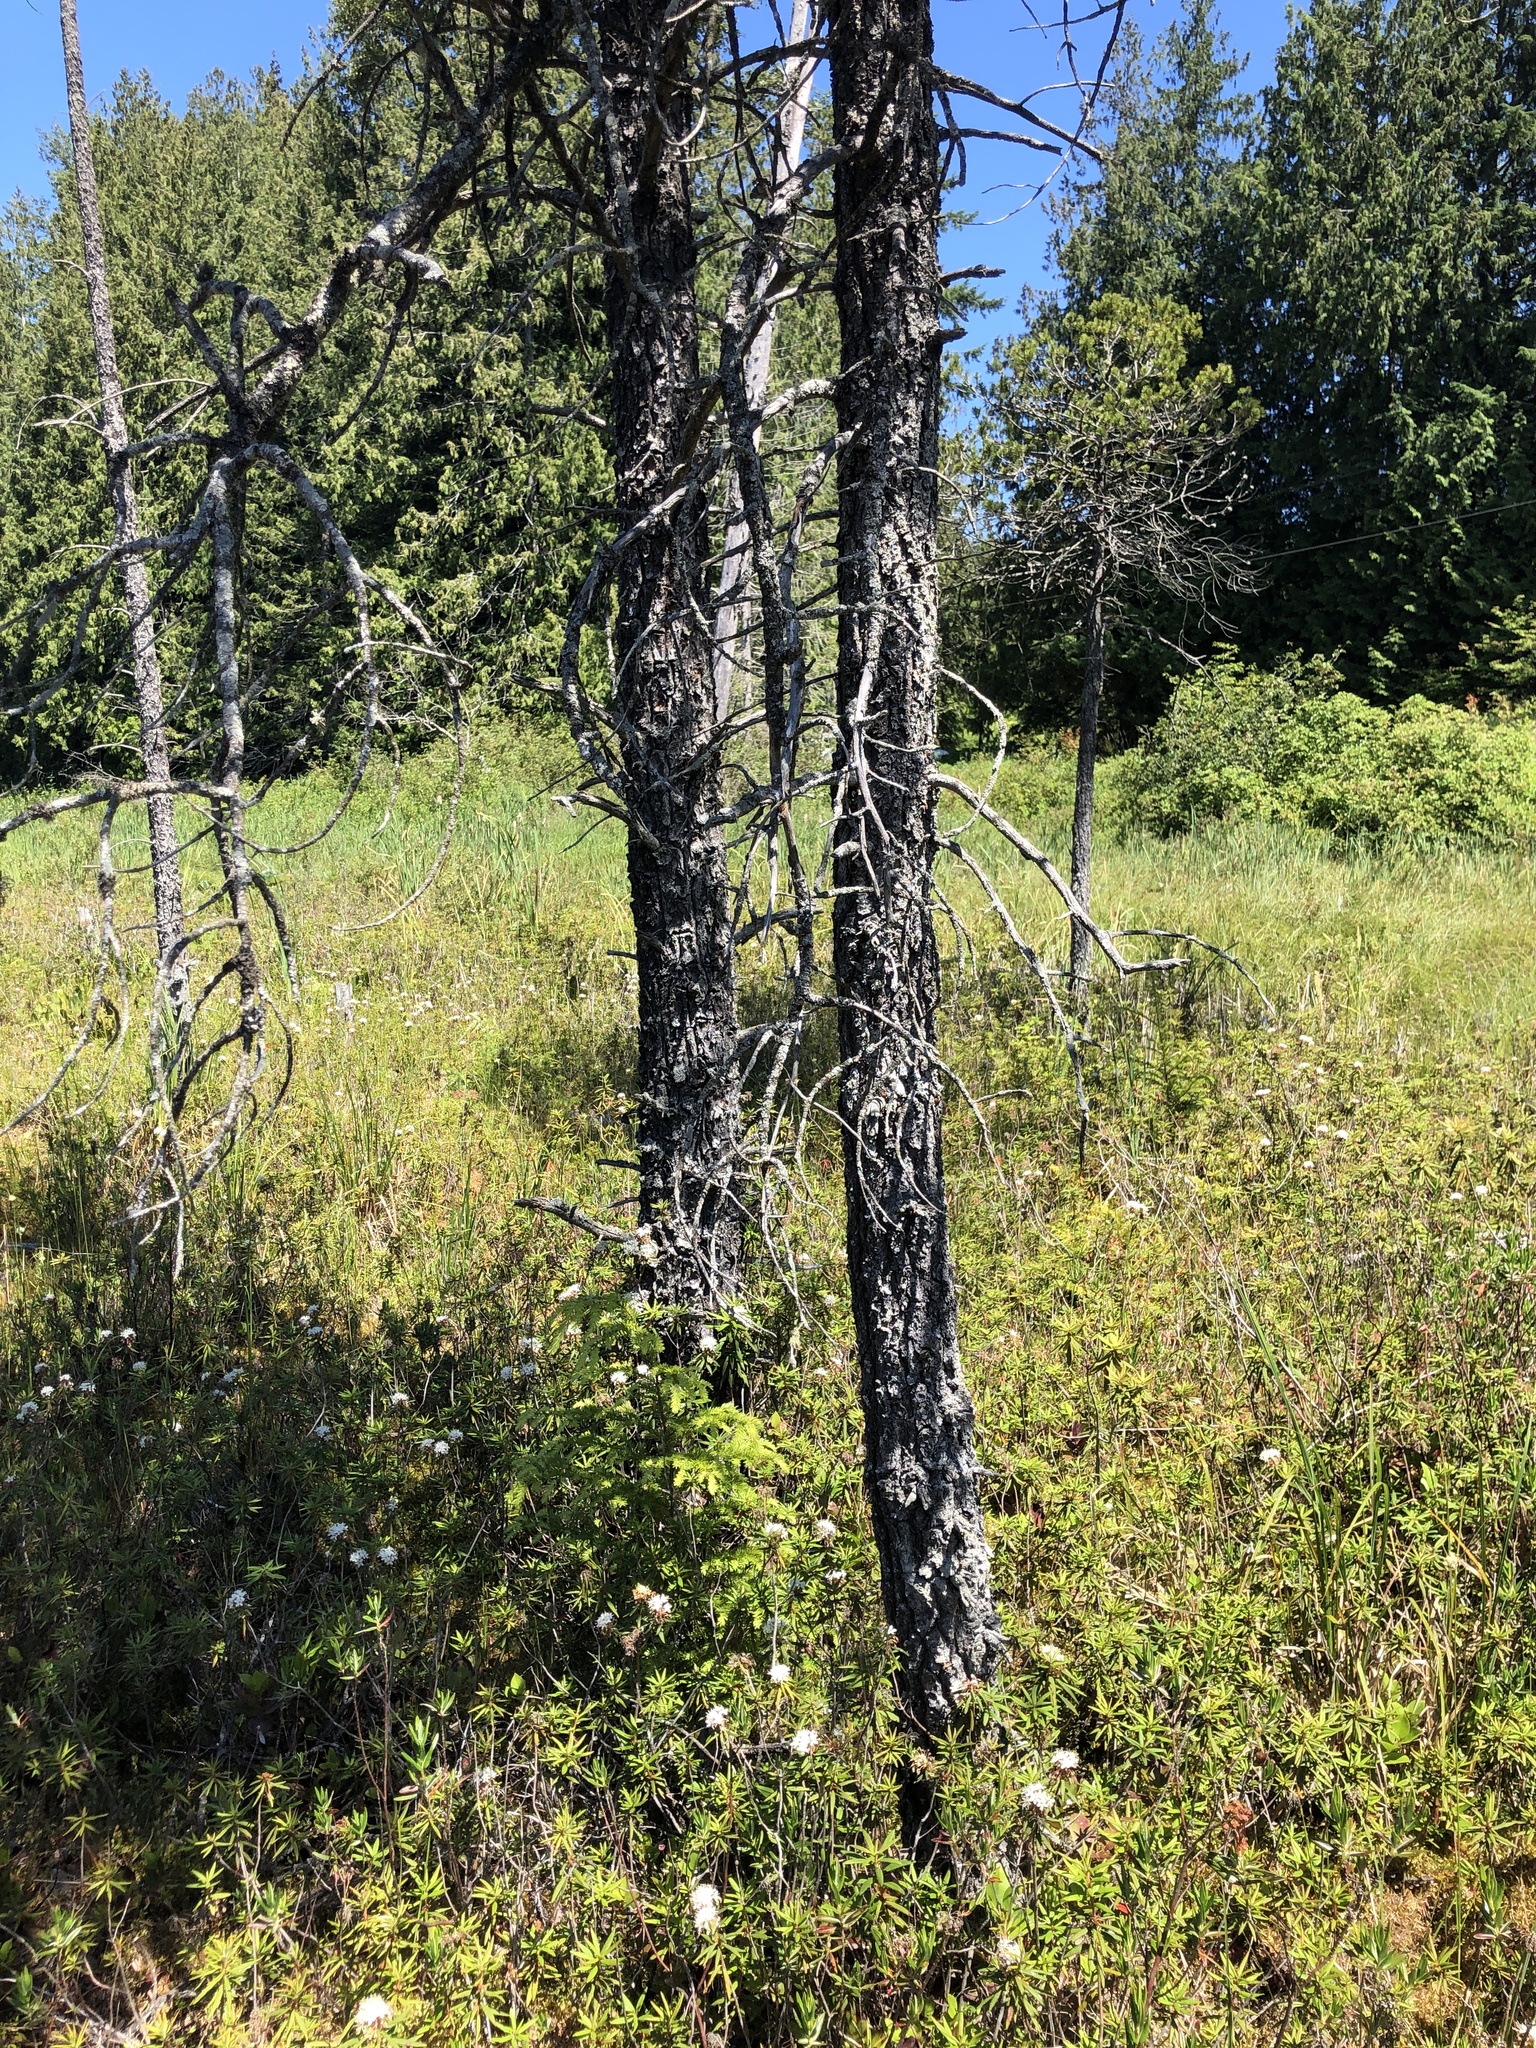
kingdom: Plantae
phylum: Tracheophyta
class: Pinopsida
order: Pinales
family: Pinaceae
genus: Pinus
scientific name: Pinus contorta
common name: Lodgepole pine
